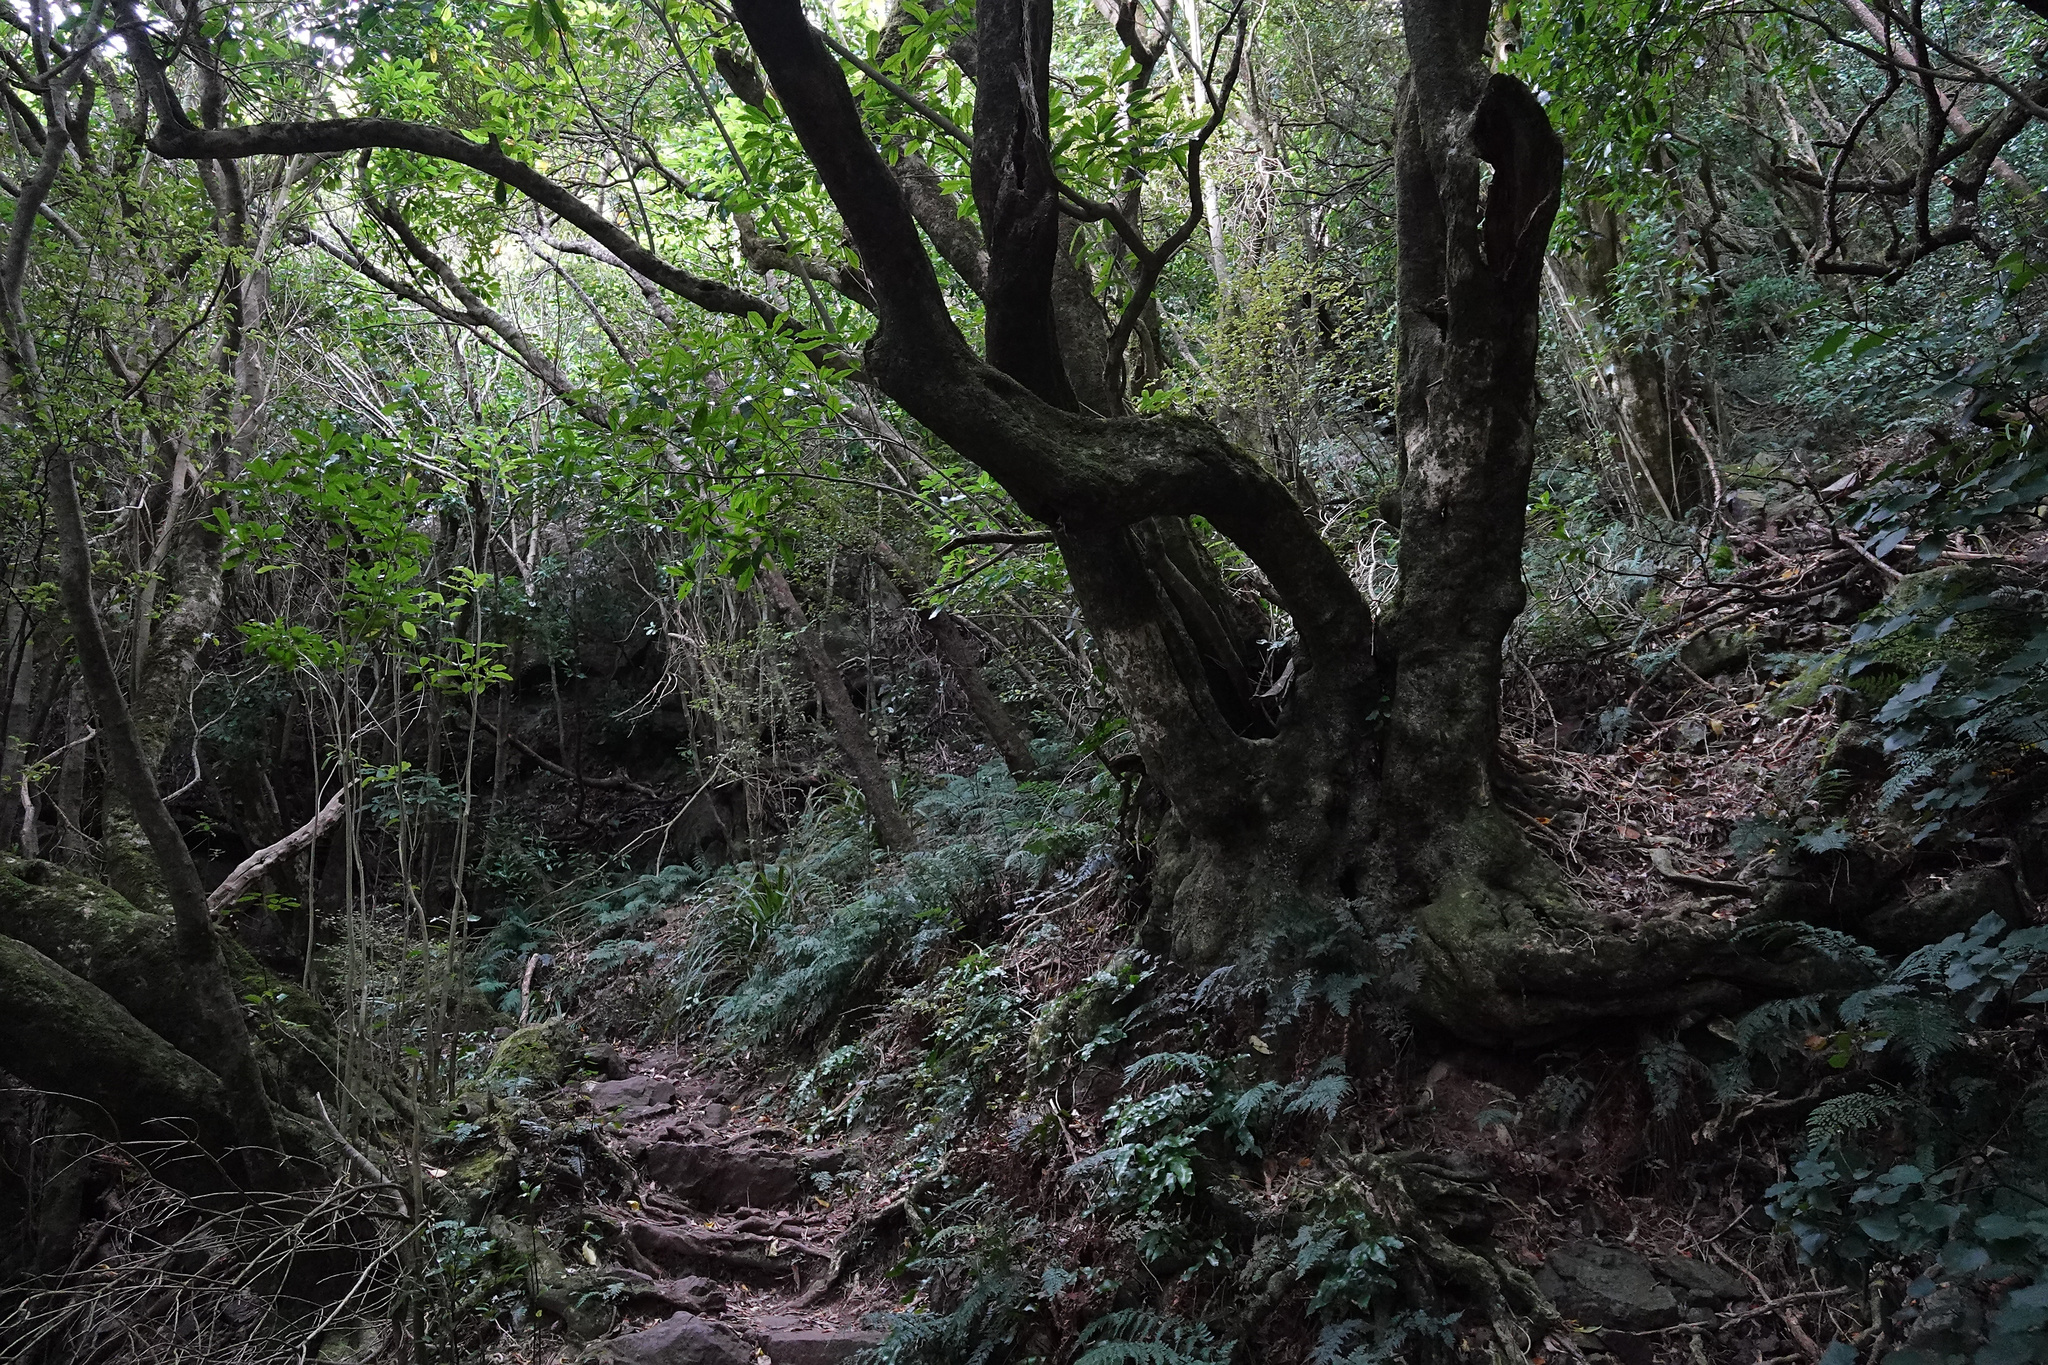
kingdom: Plantae
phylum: Tracheophyta
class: Magnoliopsida
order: Malpighiales
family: Violaceae
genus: Melicytus
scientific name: Melicytus ramiflorus
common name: Mahoe
